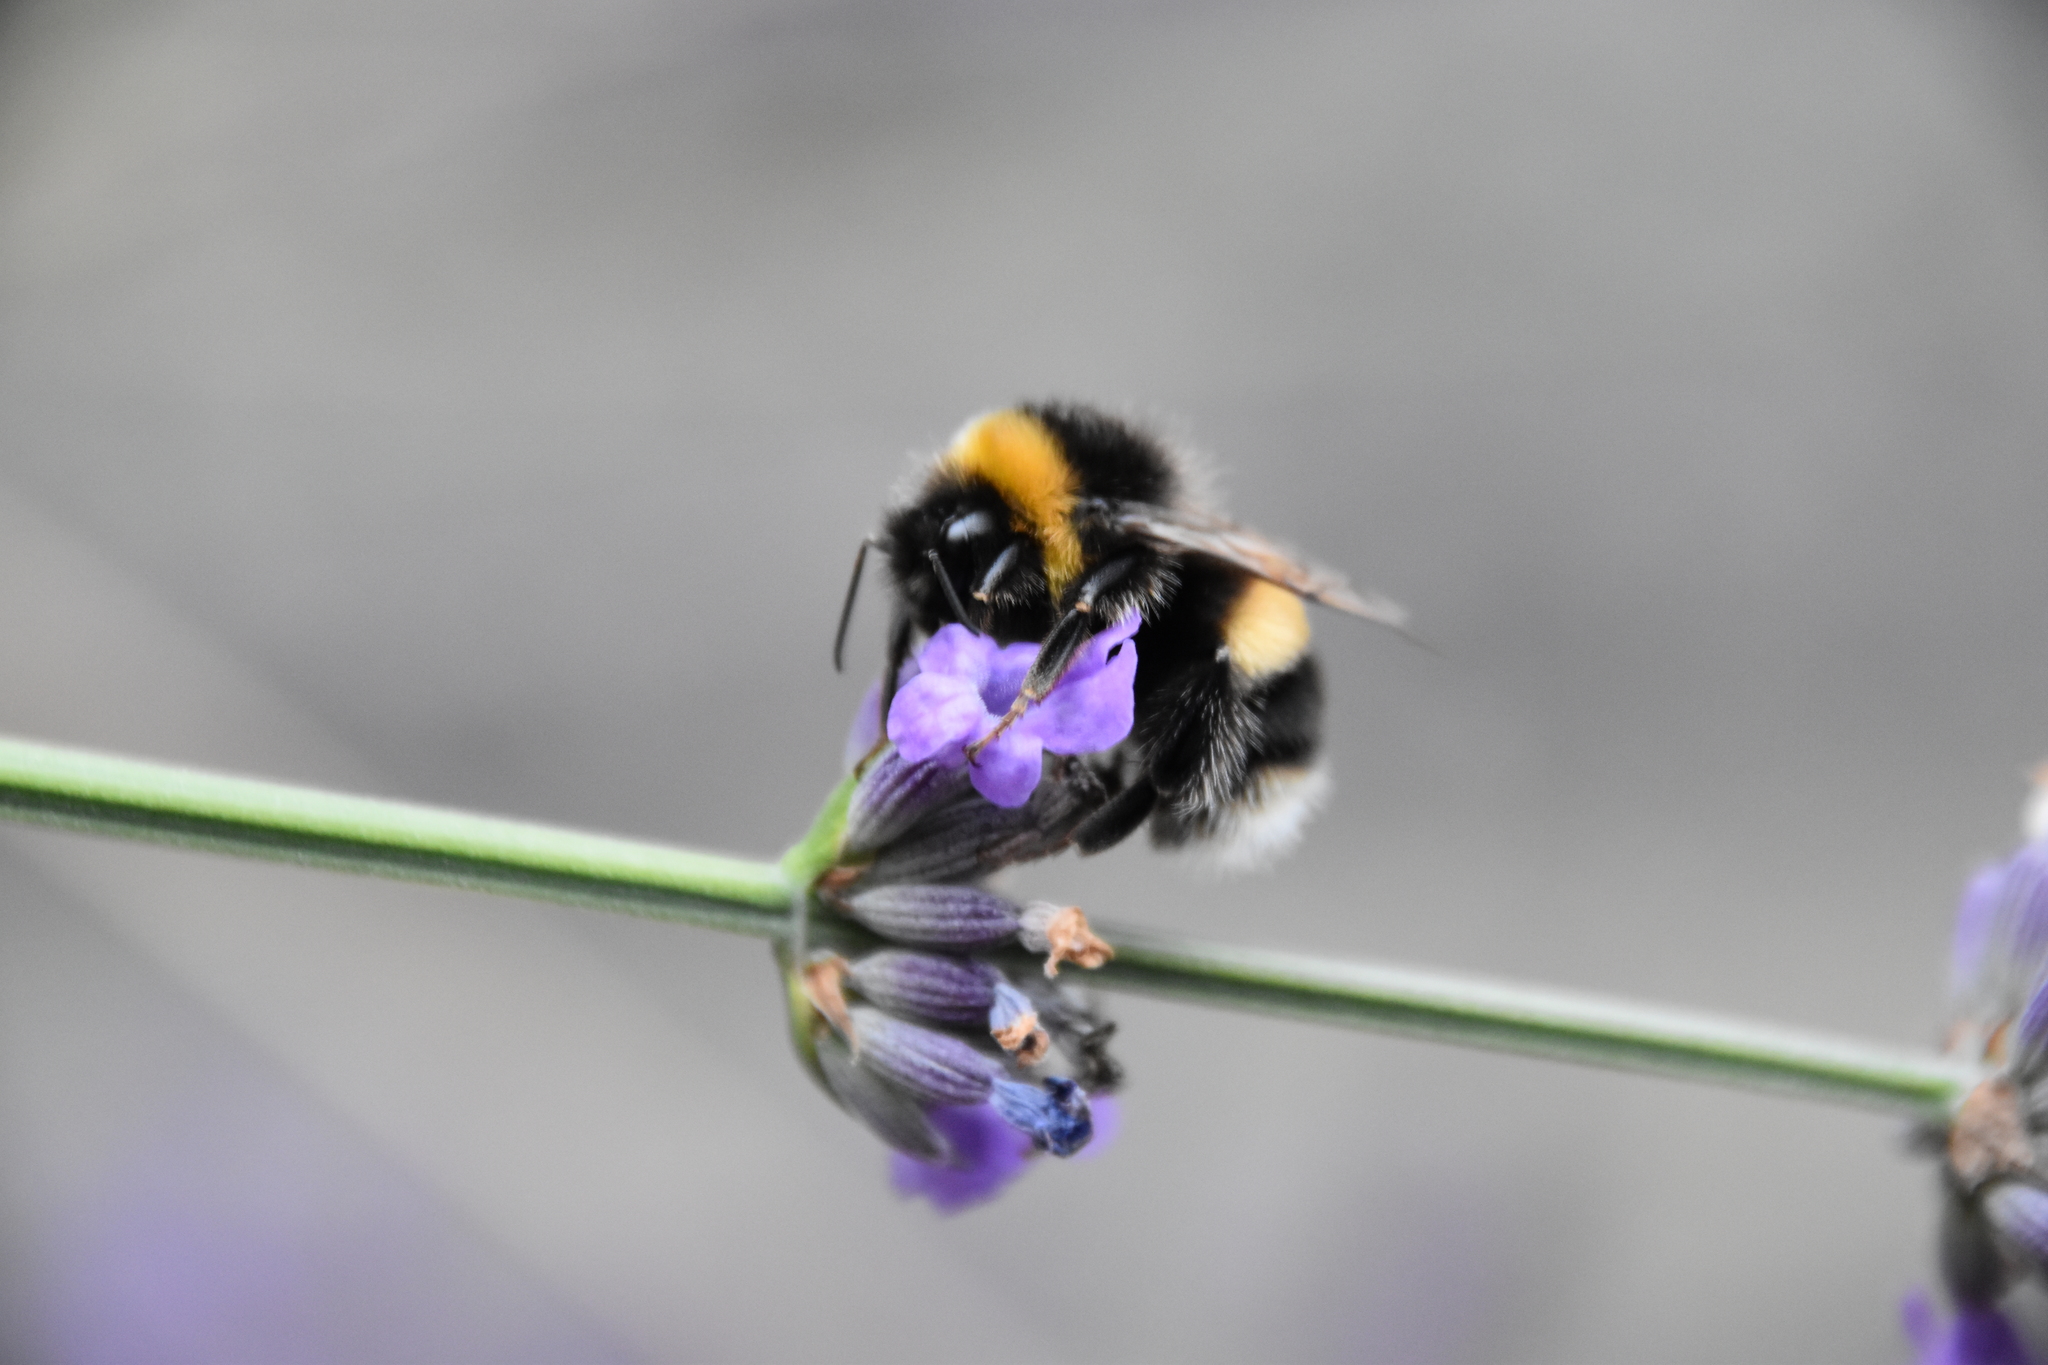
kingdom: Animalia
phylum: Arthropoda
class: Insecta
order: Hymenoptera
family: Apidae
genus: Bombus
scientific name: Bombus terrestris
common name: Buff-tailed bumblebee
